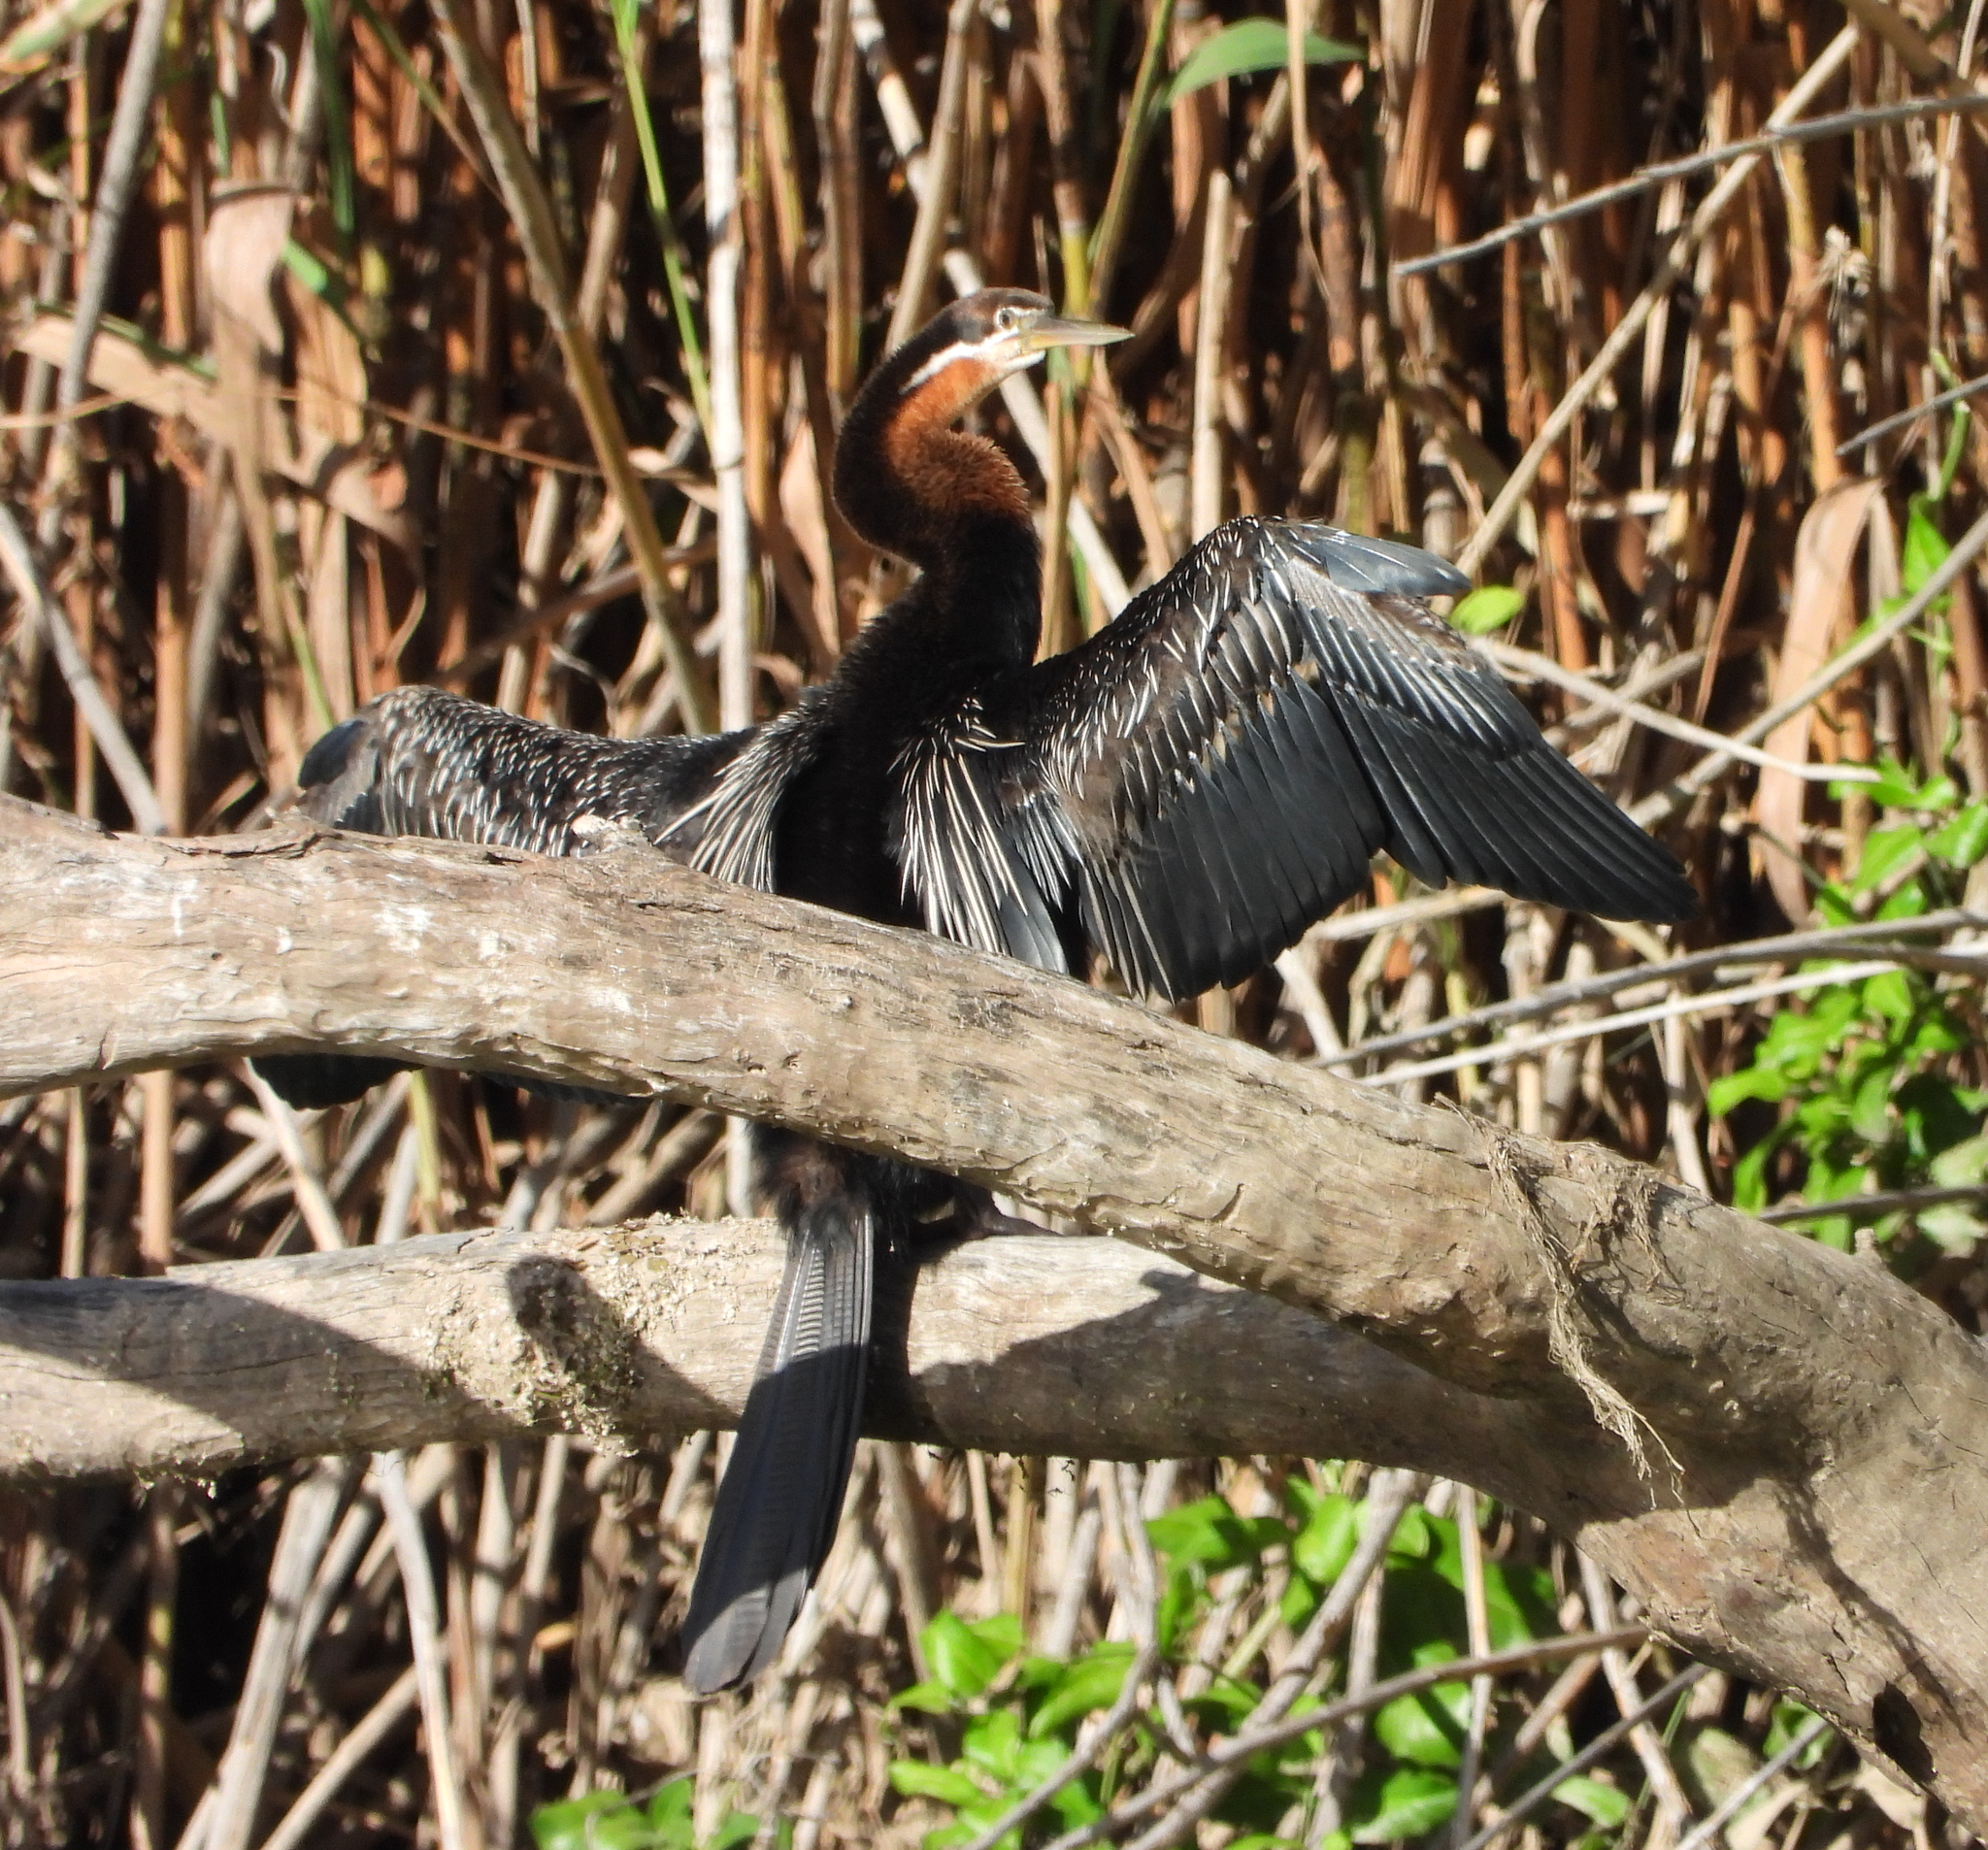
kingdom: Animalia
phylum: Chordata
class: Aves
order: Suliformes
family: Anhingidae
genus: Anhinga
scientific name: Anhinga rufa
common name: African darter
